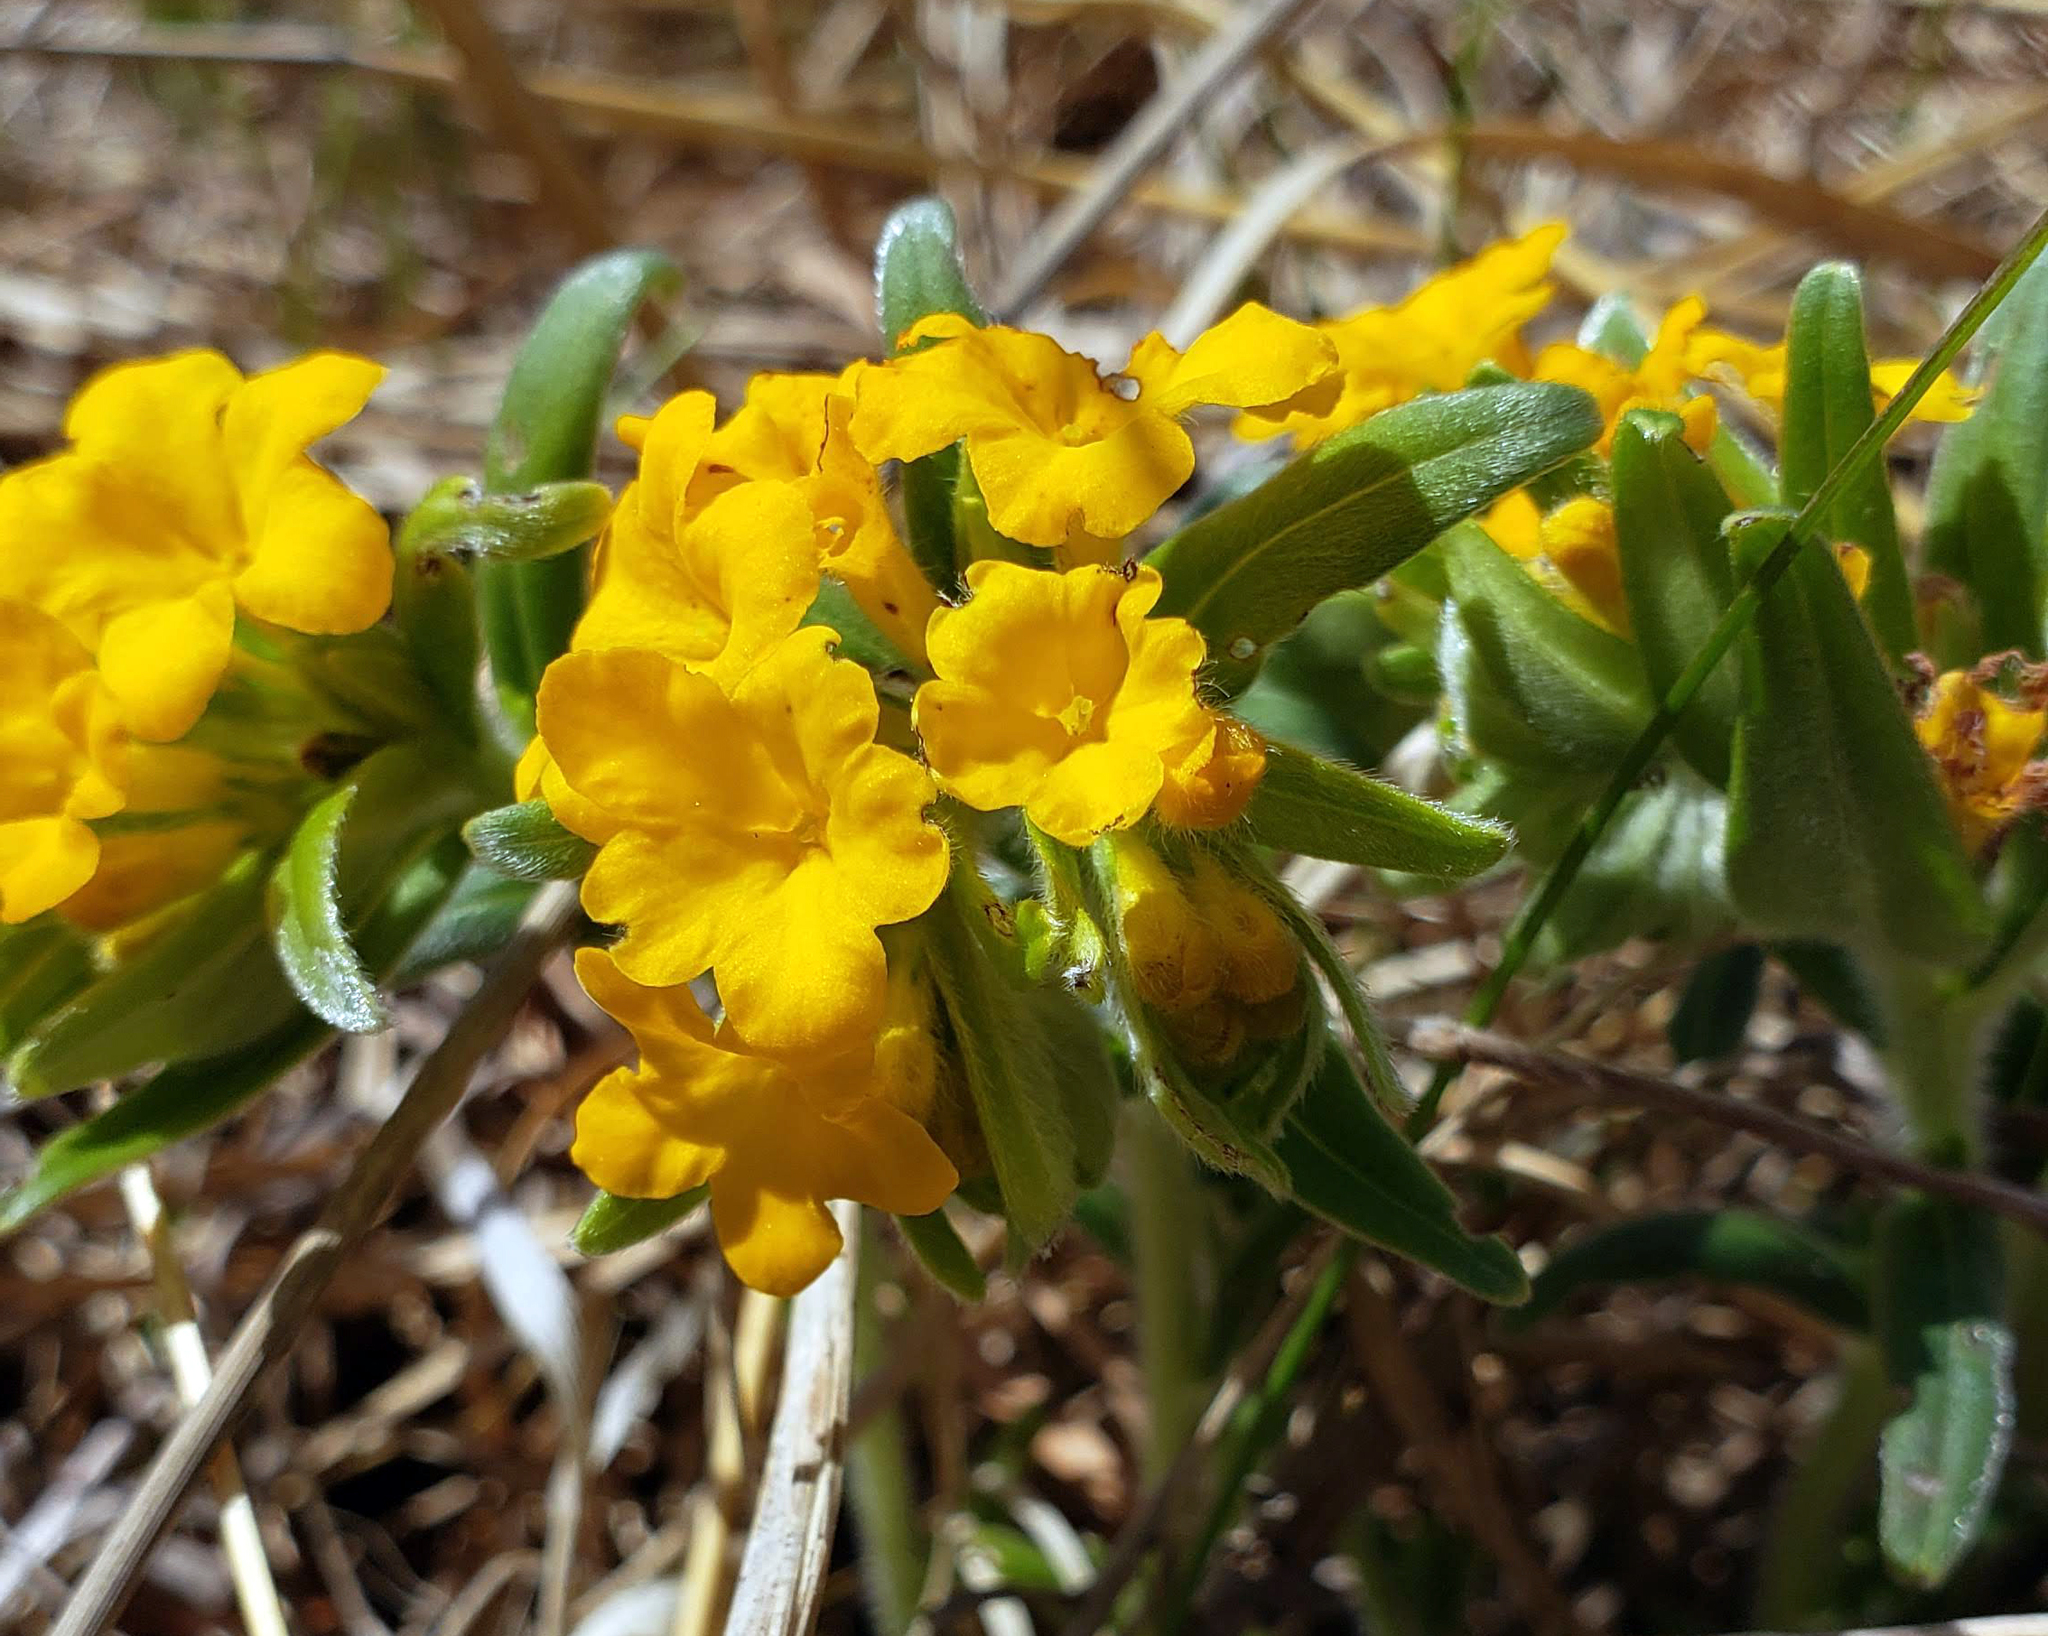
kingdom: Plantae
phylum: Tracheophyta
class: Magnoliopsida
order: Boraginales
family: Boraginaceae
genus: Lithospermum
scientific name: Lithospermum canescens
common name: Hoary puccoon
